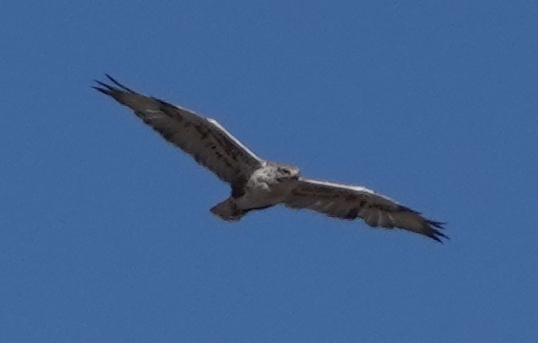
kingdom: Animalia
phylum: Chordata
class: Aves
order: Accipitriformes
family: Accipitridae
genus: Buteo
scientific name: Buteo regalis
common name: Ferruginous hawk
